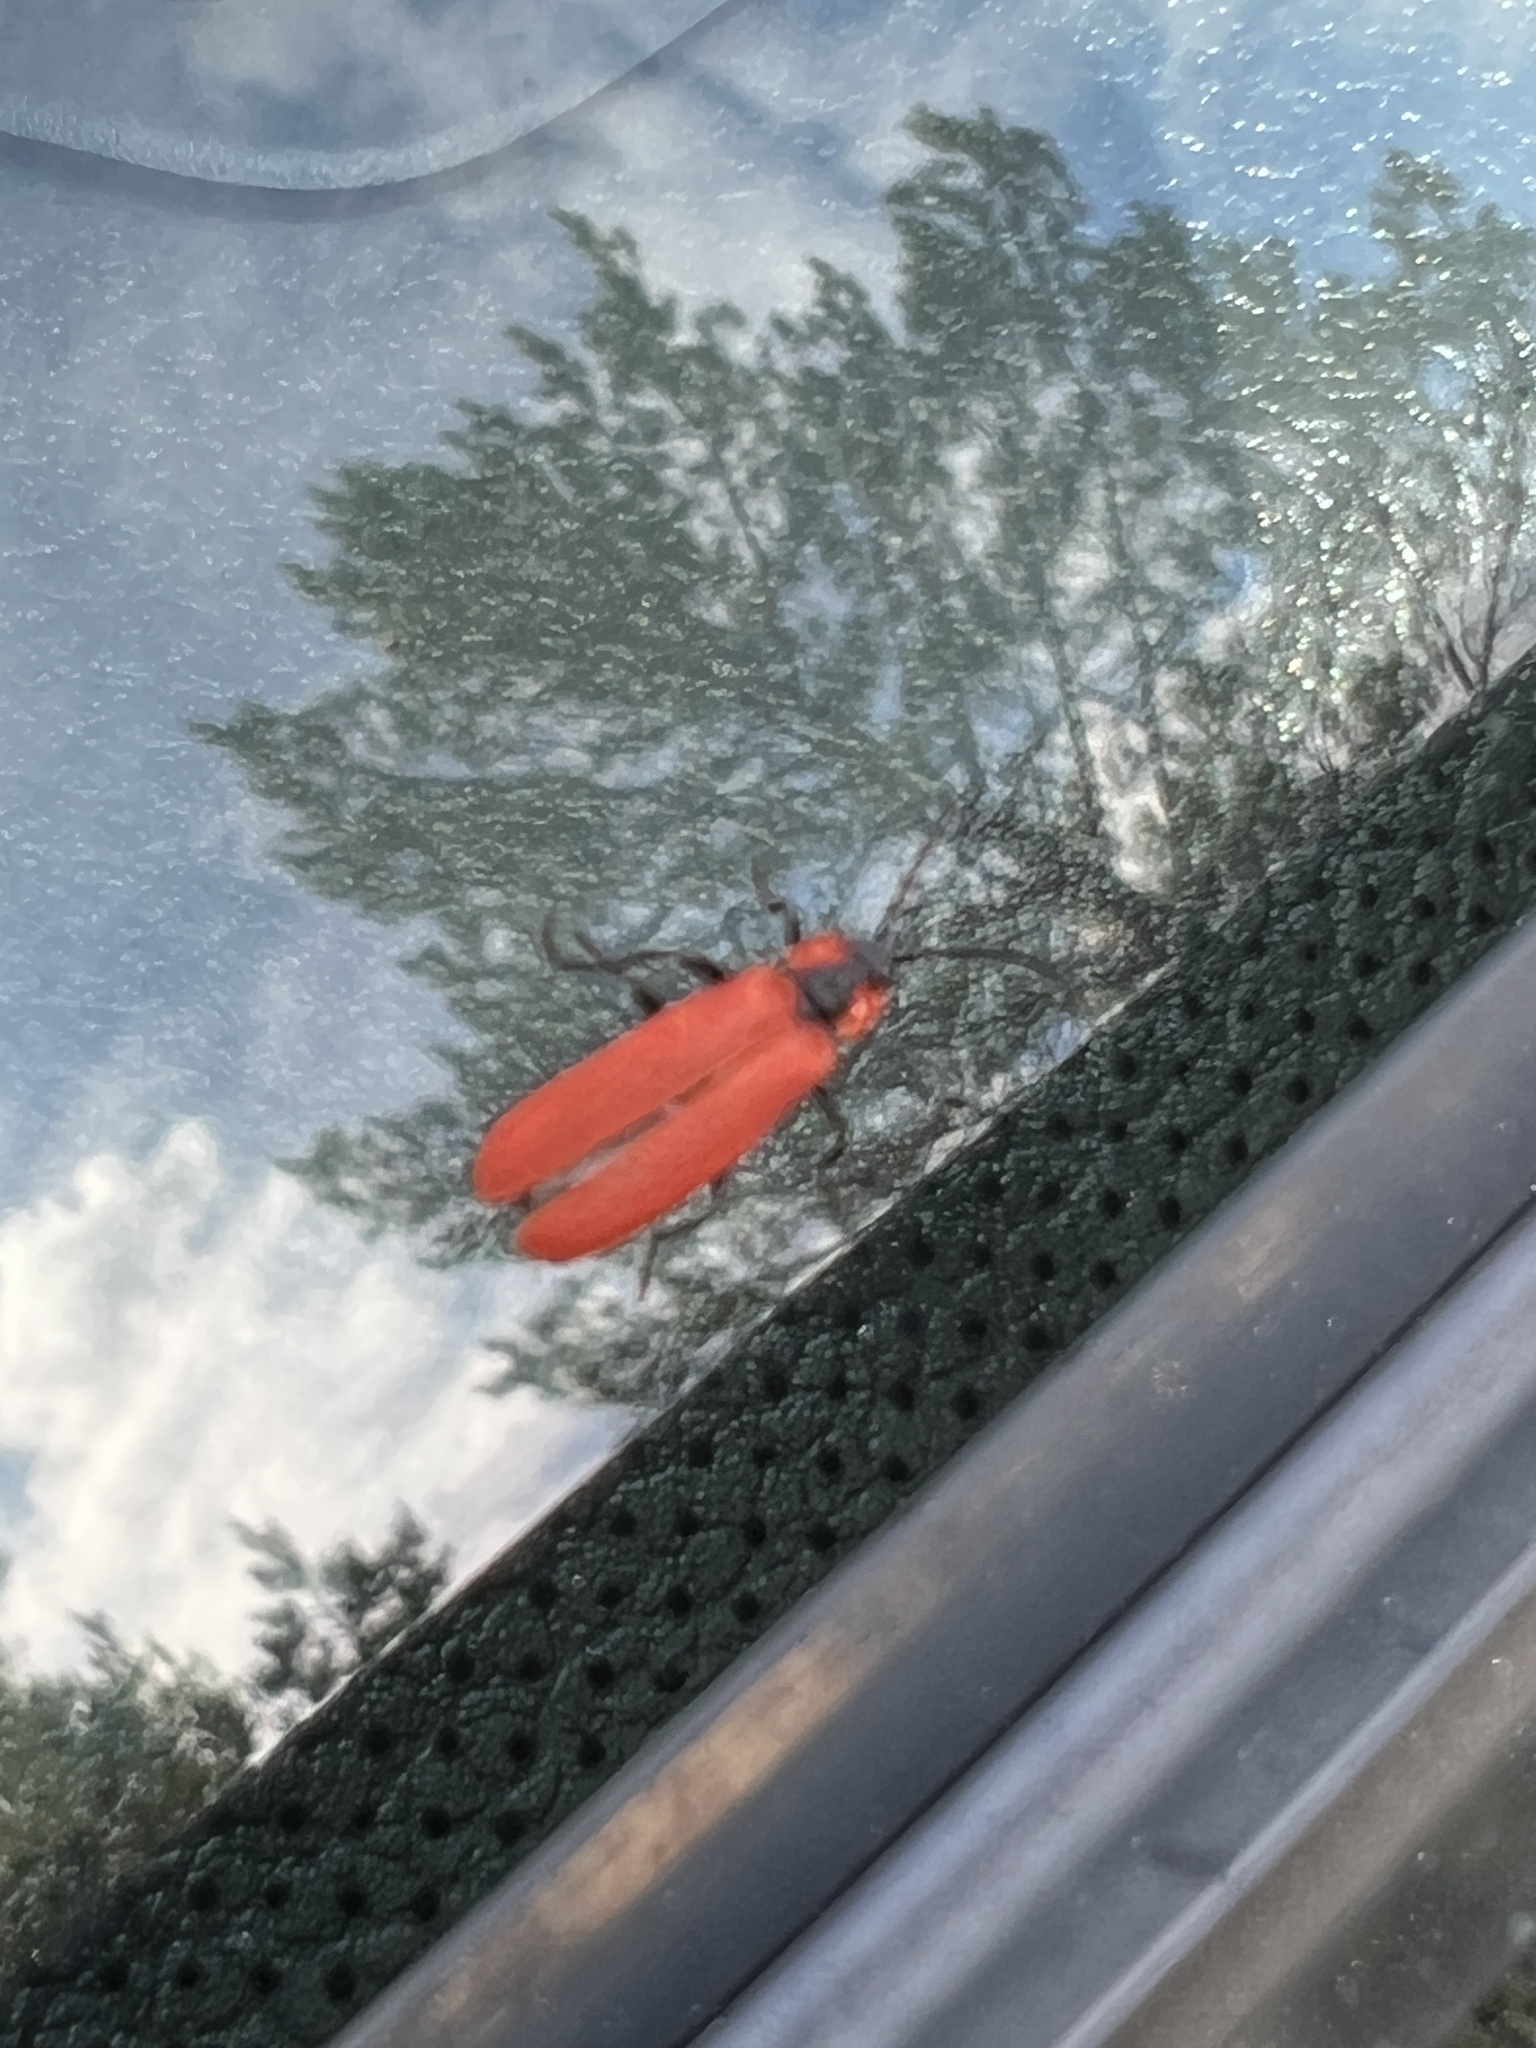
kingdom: Animalia
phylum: Arthropoda
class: Insecta
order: Coleoptera
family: Lycidae
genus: Lygistopterus
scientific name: Lygistopterus sanguineus
